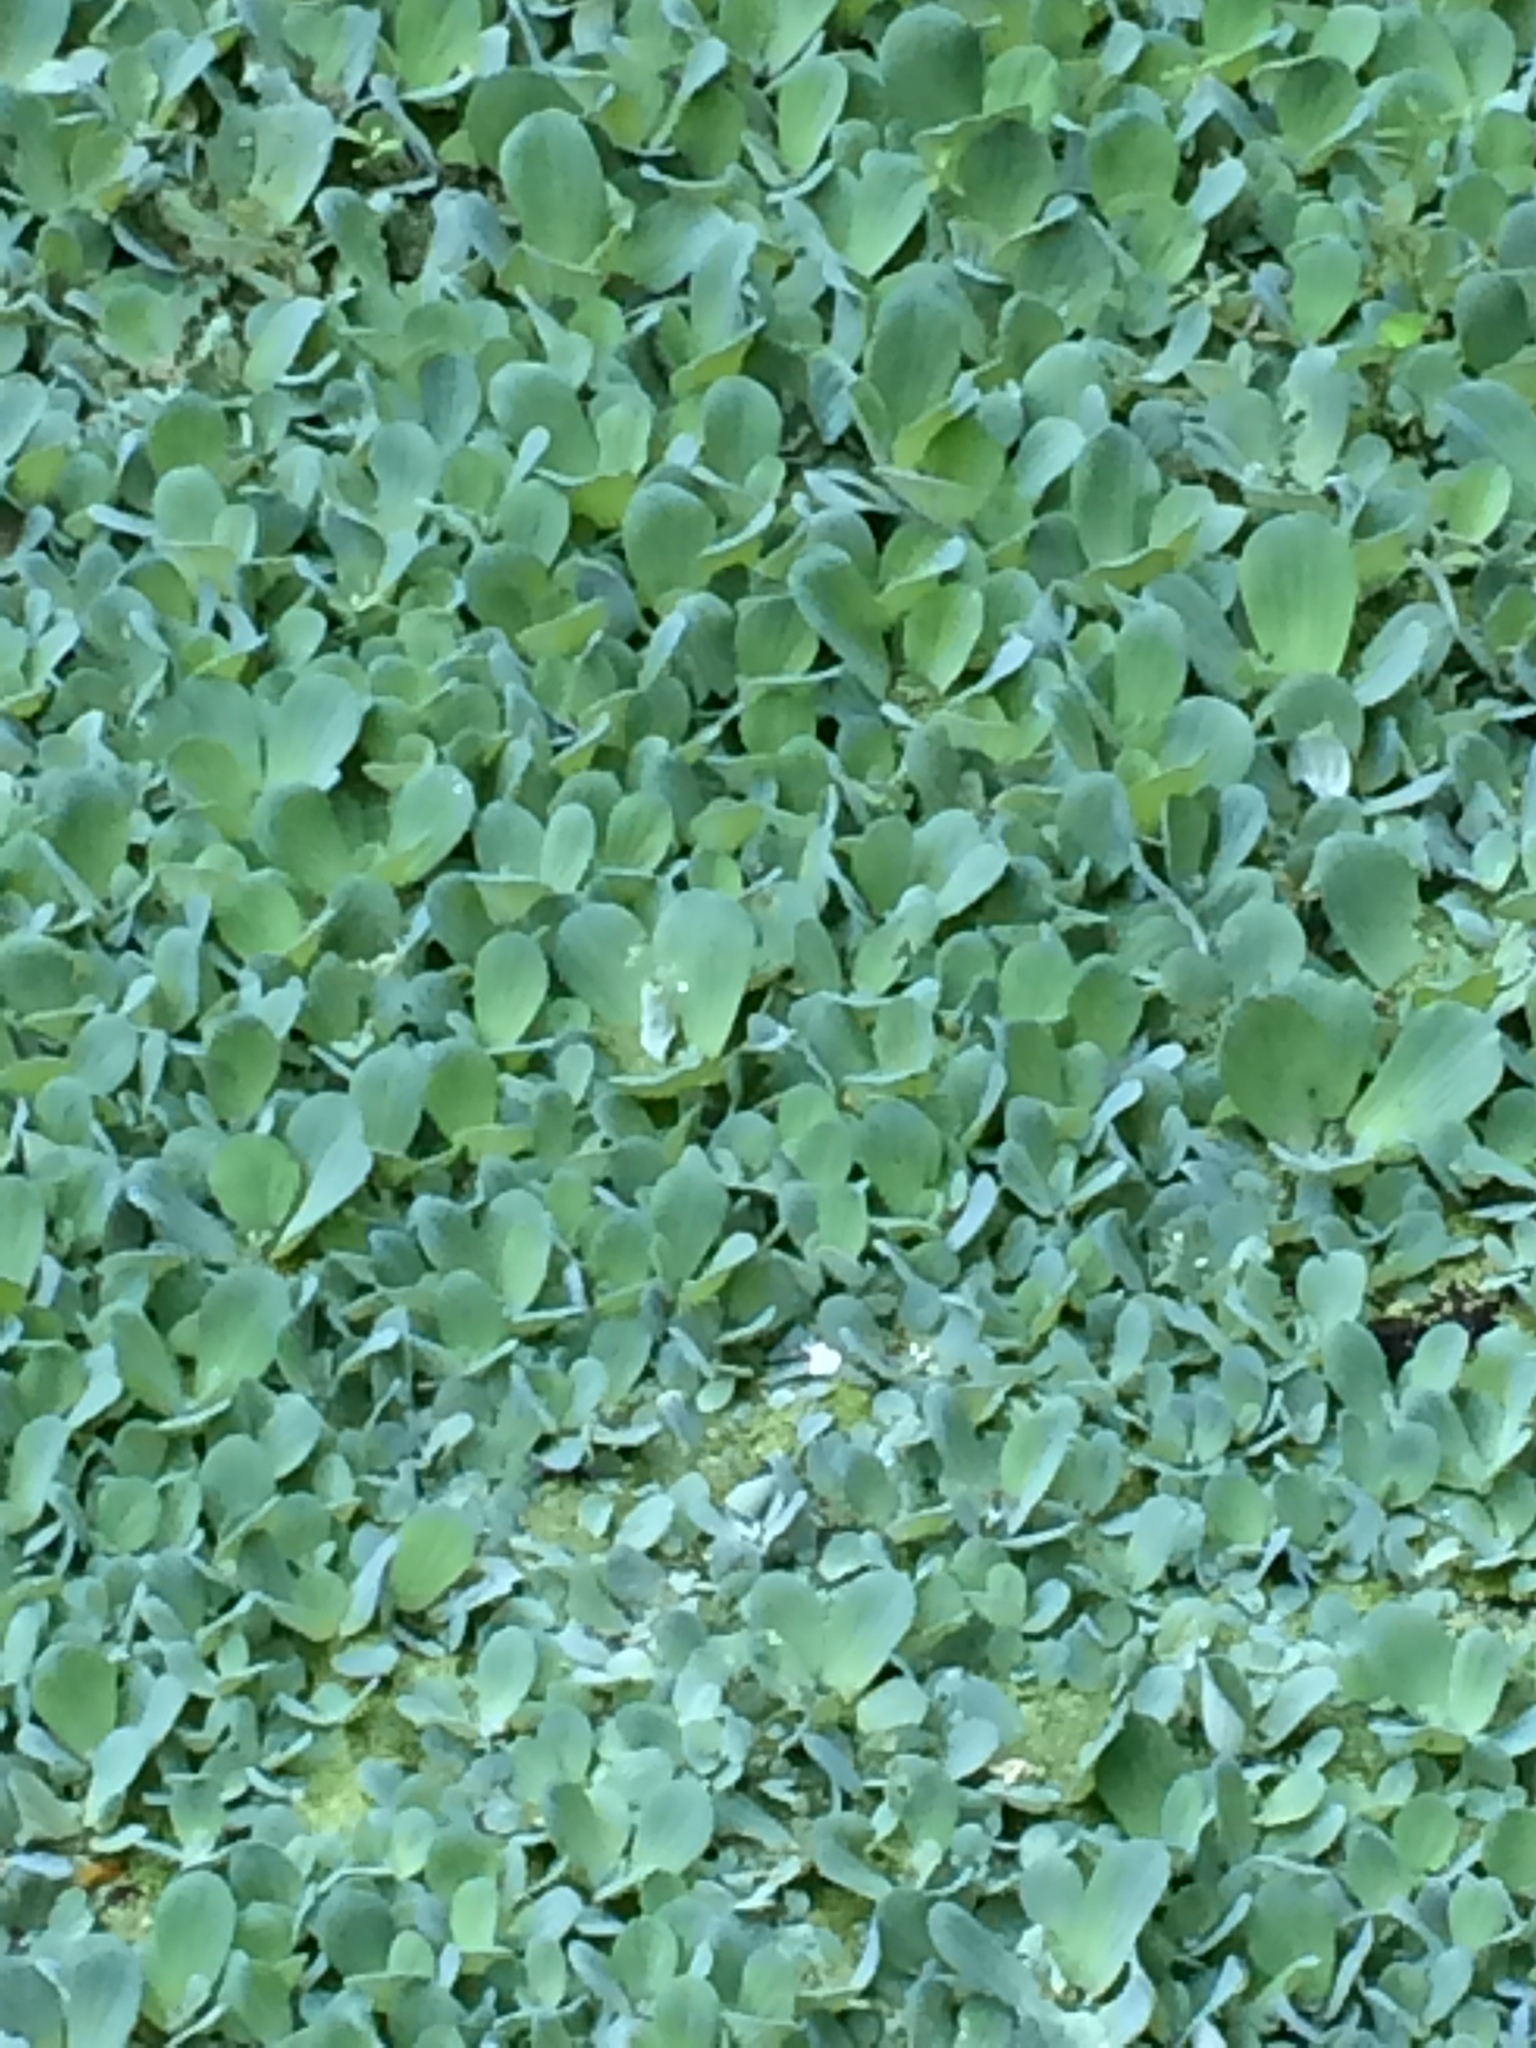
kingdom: Plantae
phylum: Tracheophyta
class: Liliopsida
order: Alismatales
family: Araceae
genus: Pistia
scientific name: Pistia stratiotes
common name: Water lettuce
